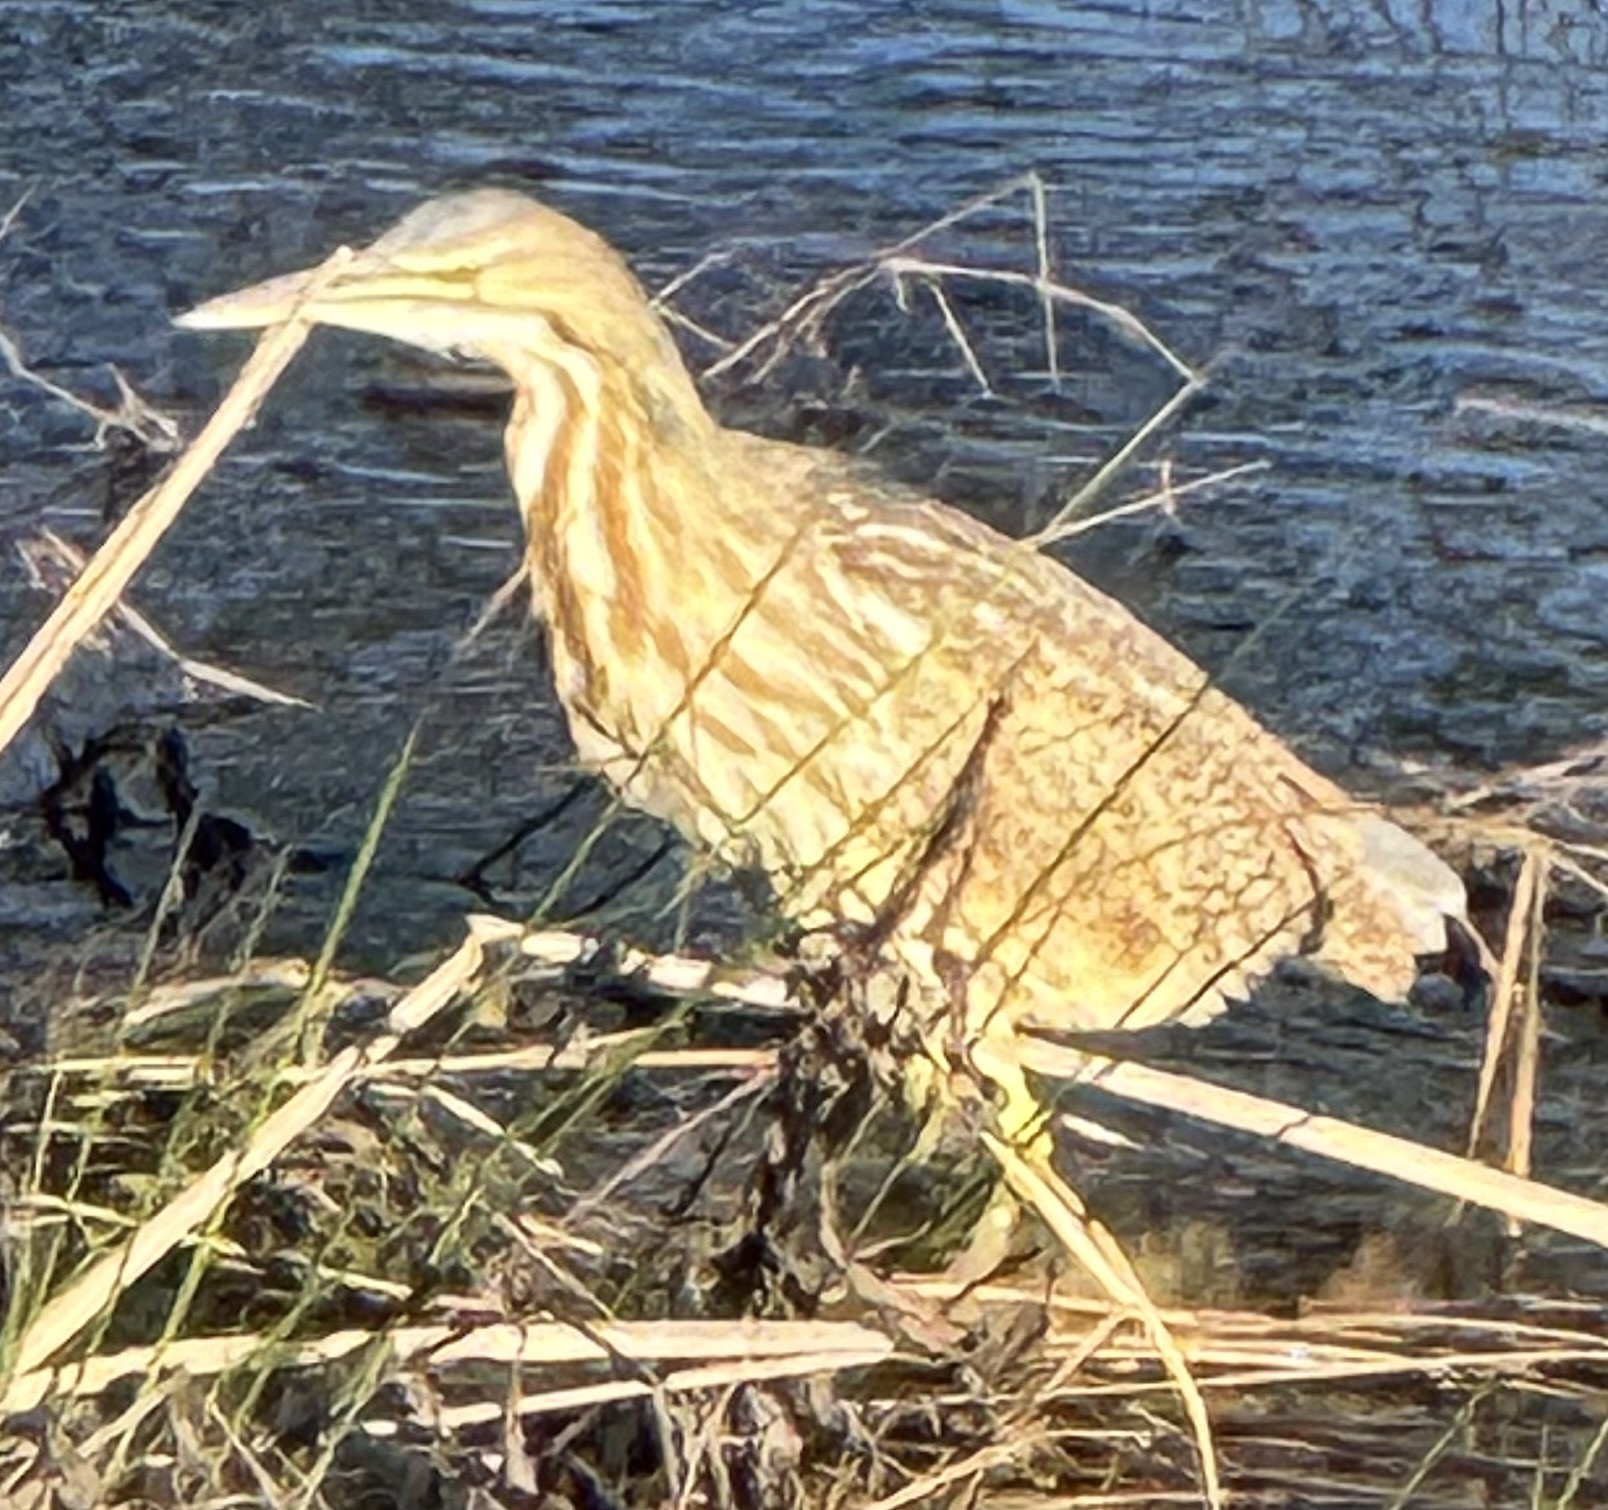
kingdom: Animalia
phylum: Chordata
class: Aves
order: Pelecaniformes
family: Ardeidae
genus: Botaurus
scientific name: Botaurus lentiginosus
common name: American bittern
